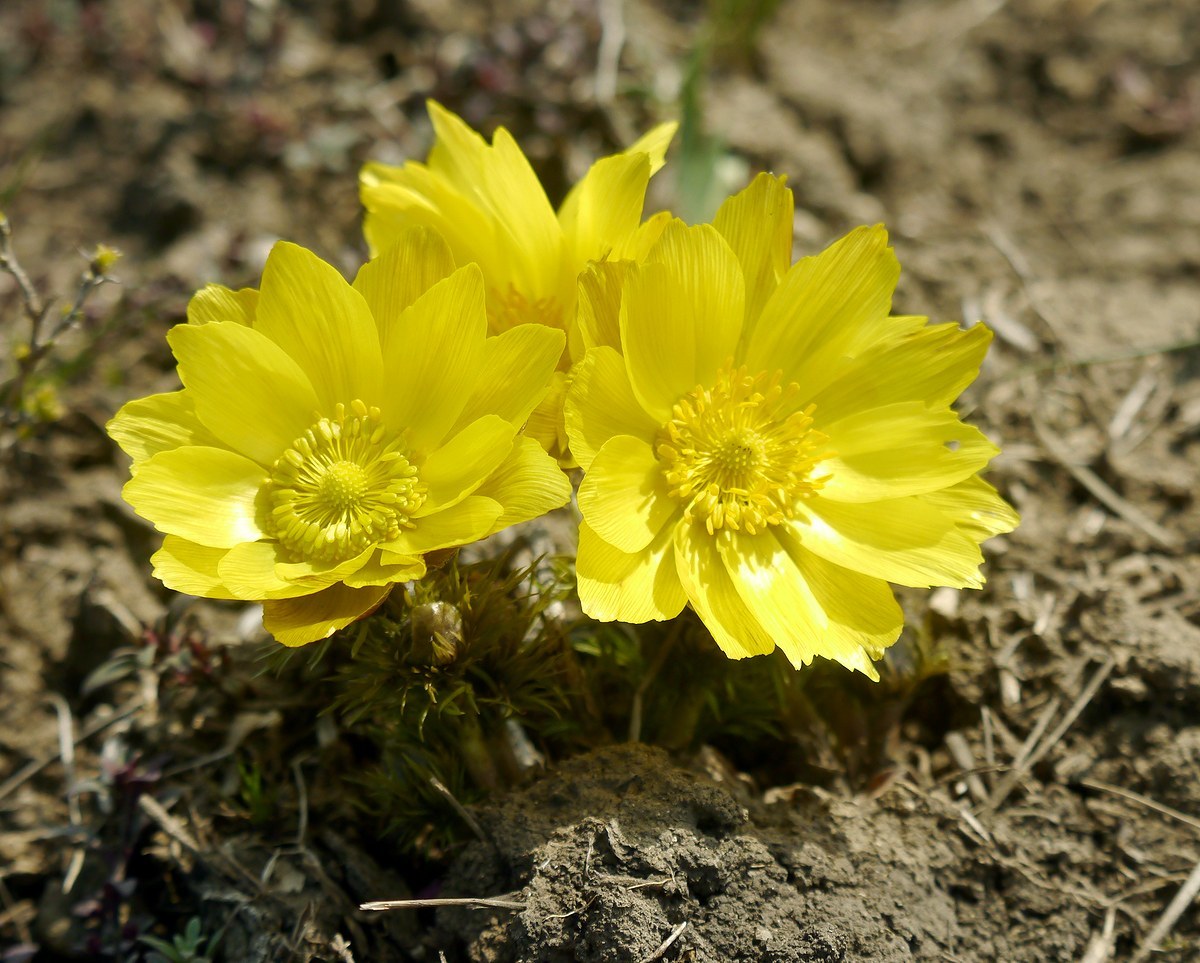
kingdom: Plantae
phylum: Tracheophyta
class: Magnoliopsida
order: Ranunculales
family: Ranunculaceae
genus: Adonis
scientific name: Adonis vernalis
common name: Yellow pheasants-eye
